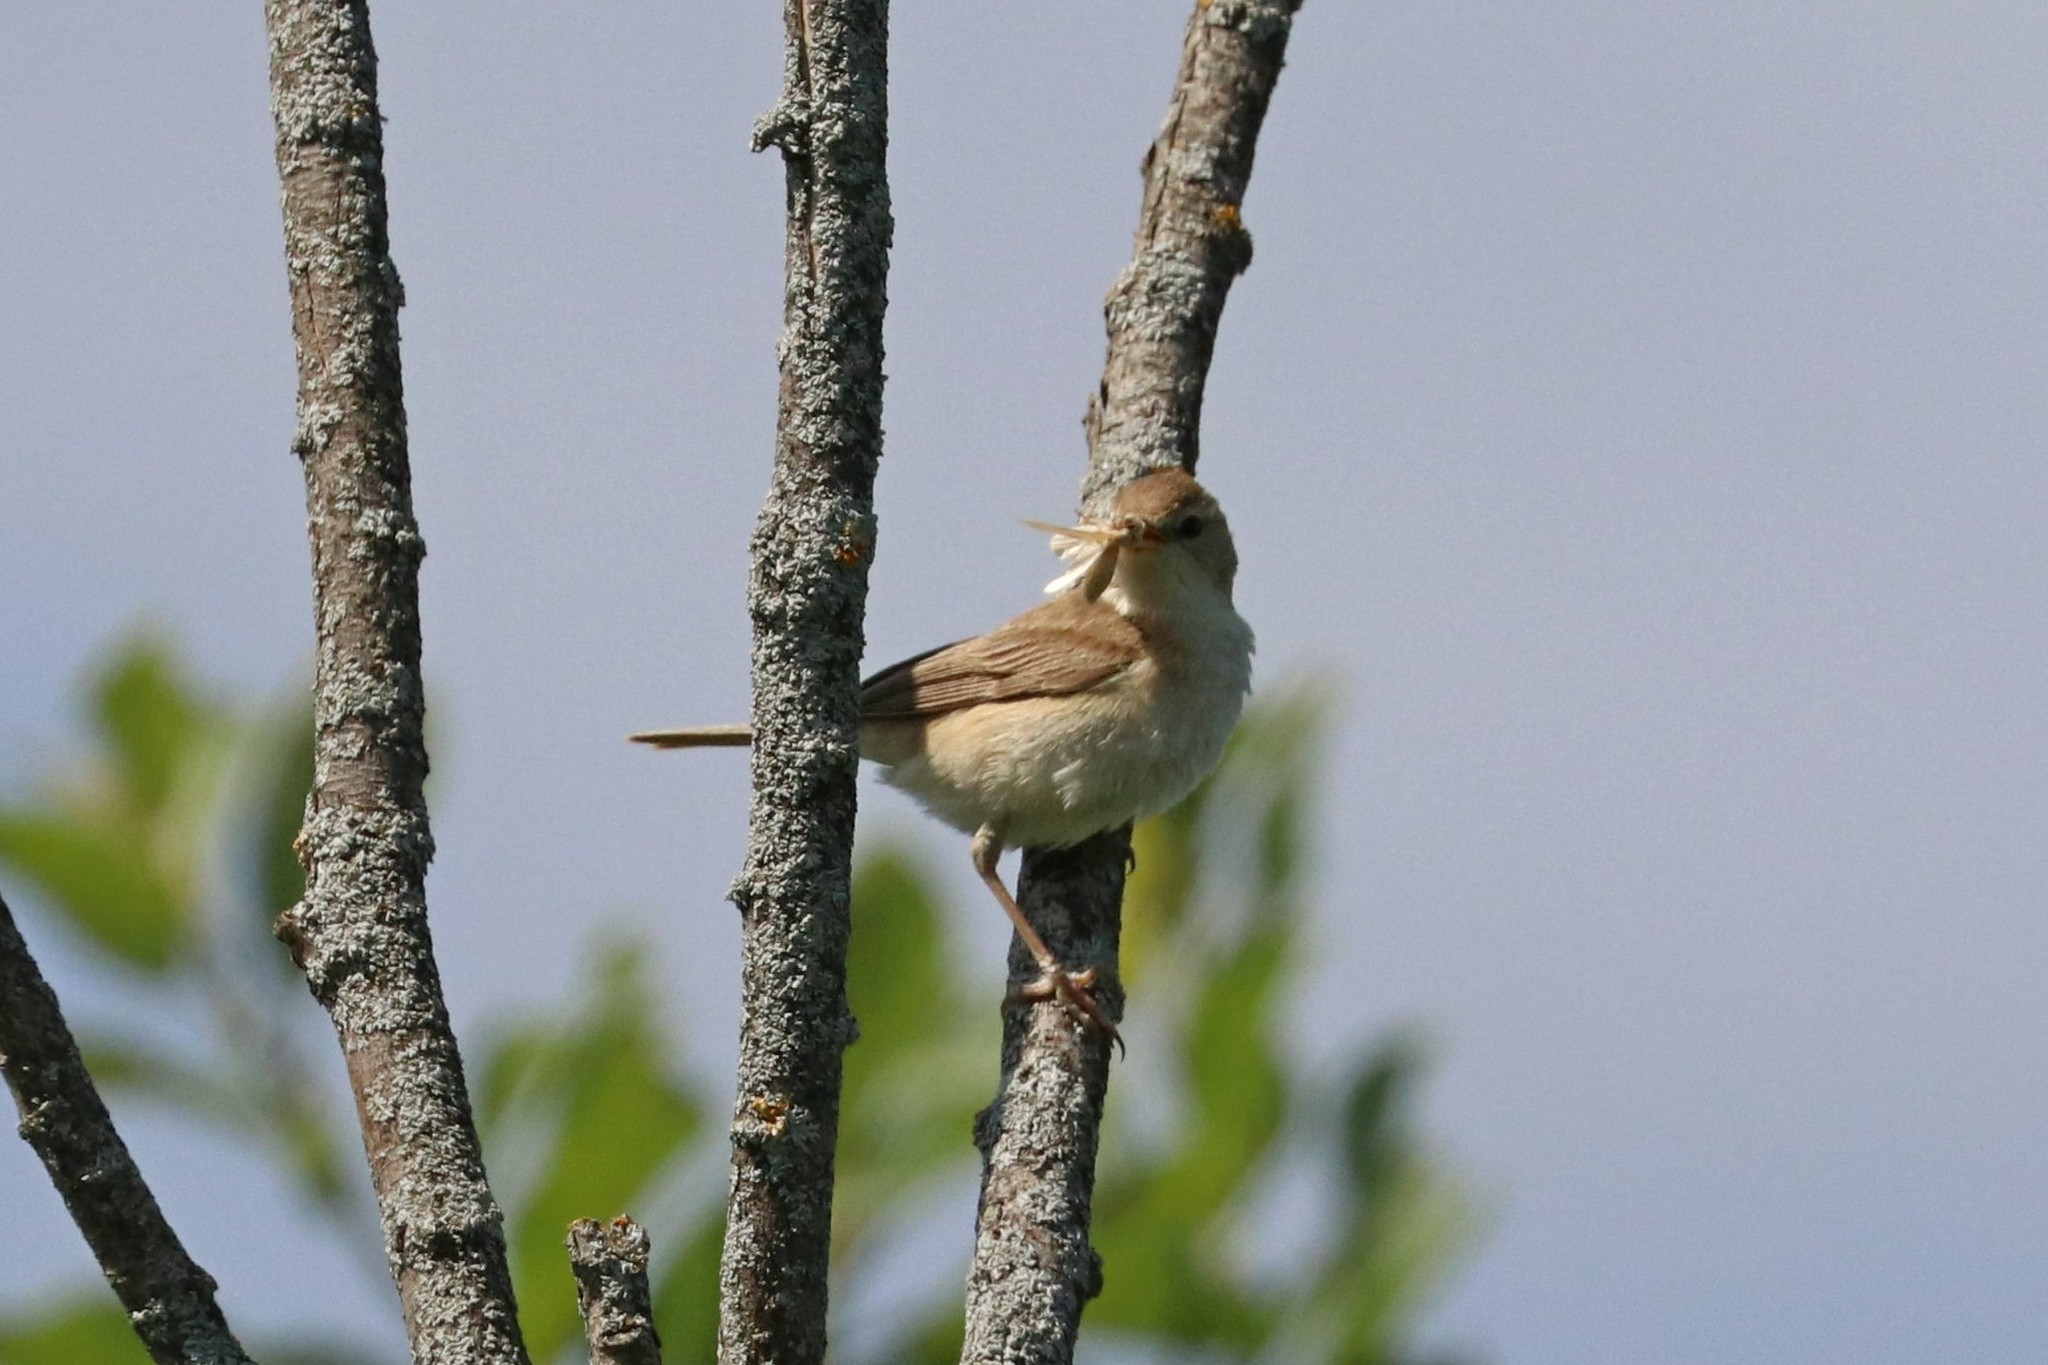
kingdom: Animalia
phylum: Chordata
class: Aves
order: Passeriformes
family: Acrocephalidae
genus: Iduna
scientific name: Iduna caligata
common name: Booted warbler
